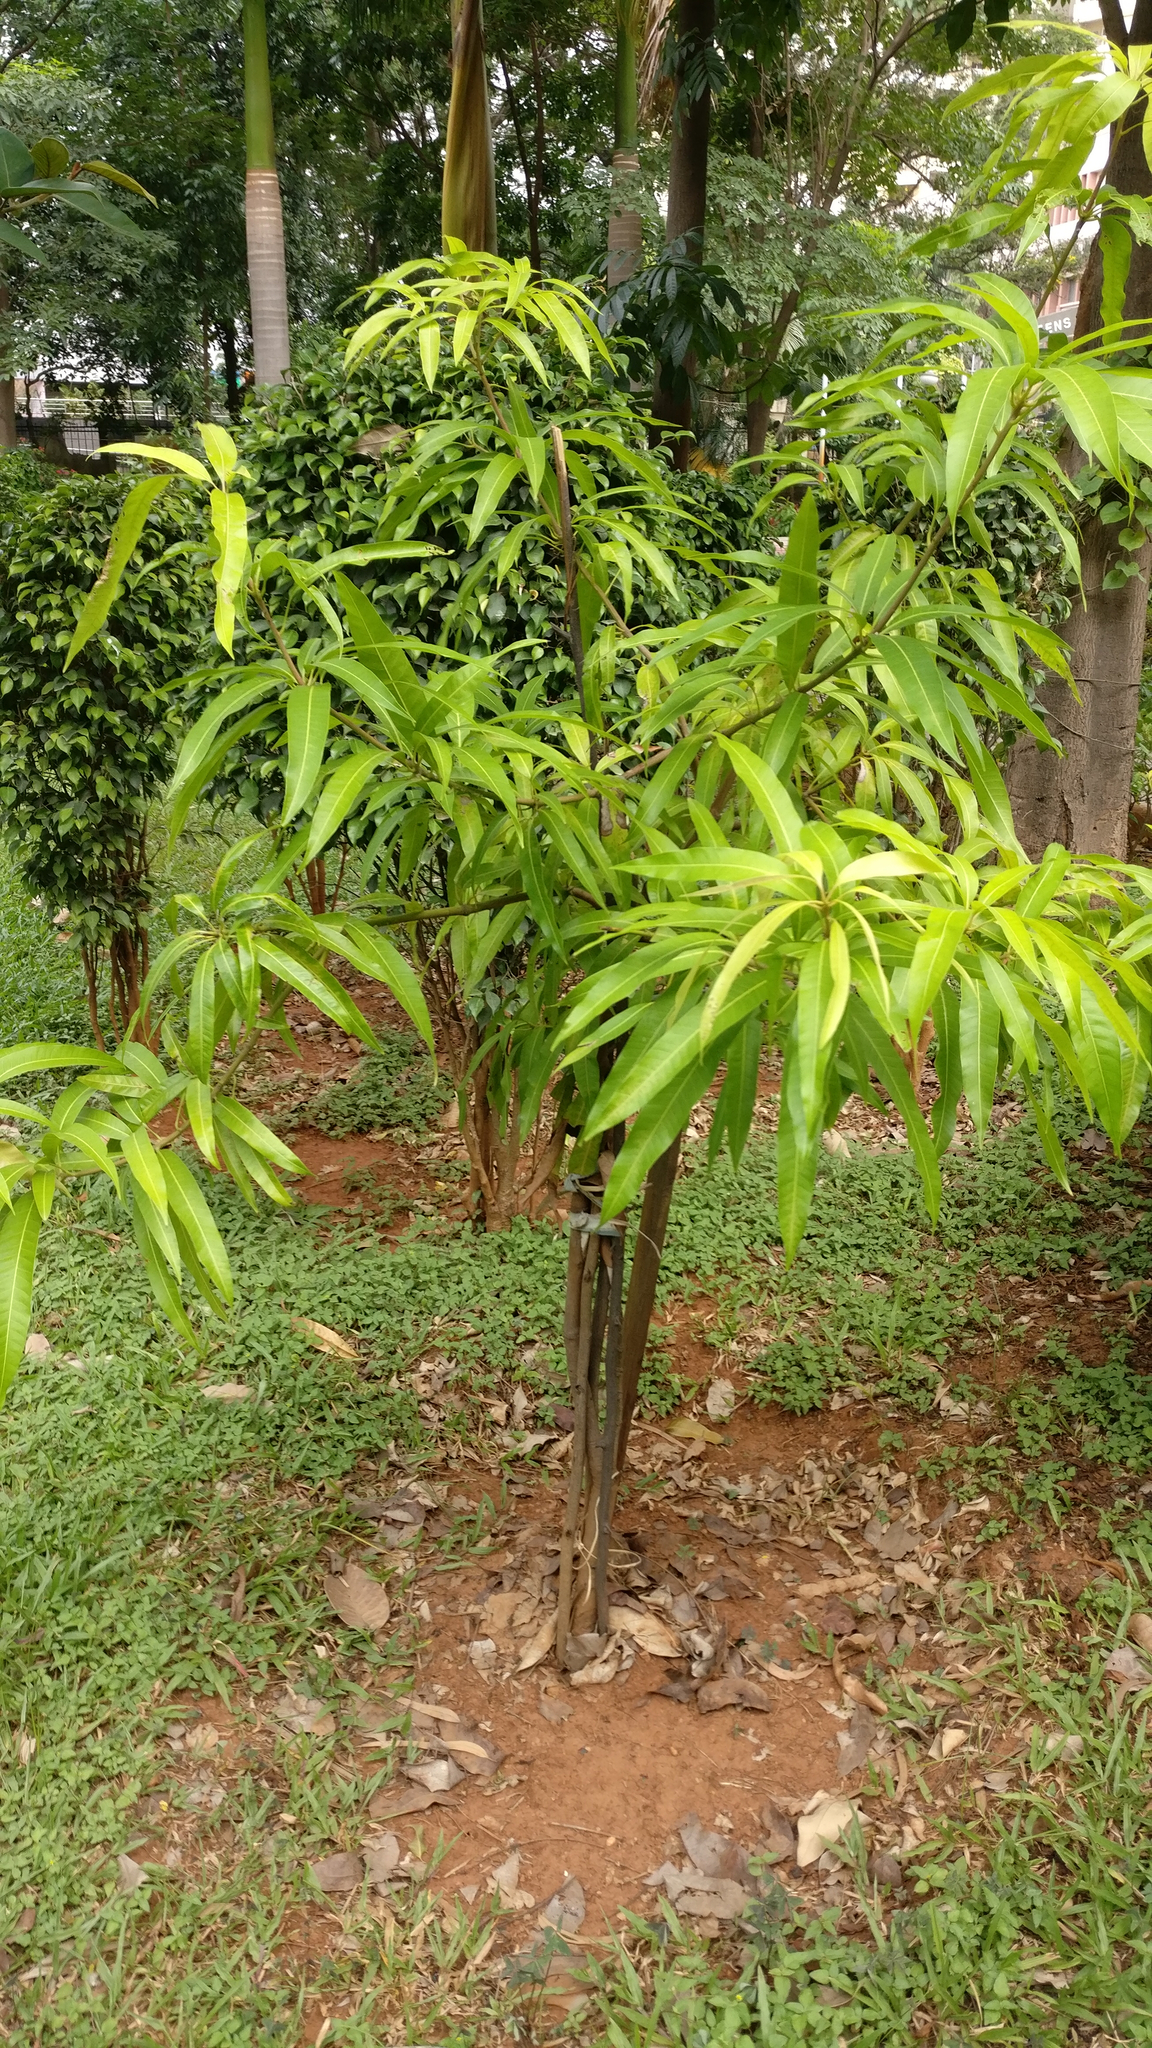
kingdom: Plantae
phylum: Tracheophyta
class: Magnoliopsida
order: Sapindales
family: Anacardiaceae
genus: Mangifera
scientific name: Mangifera indica
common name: Mango
